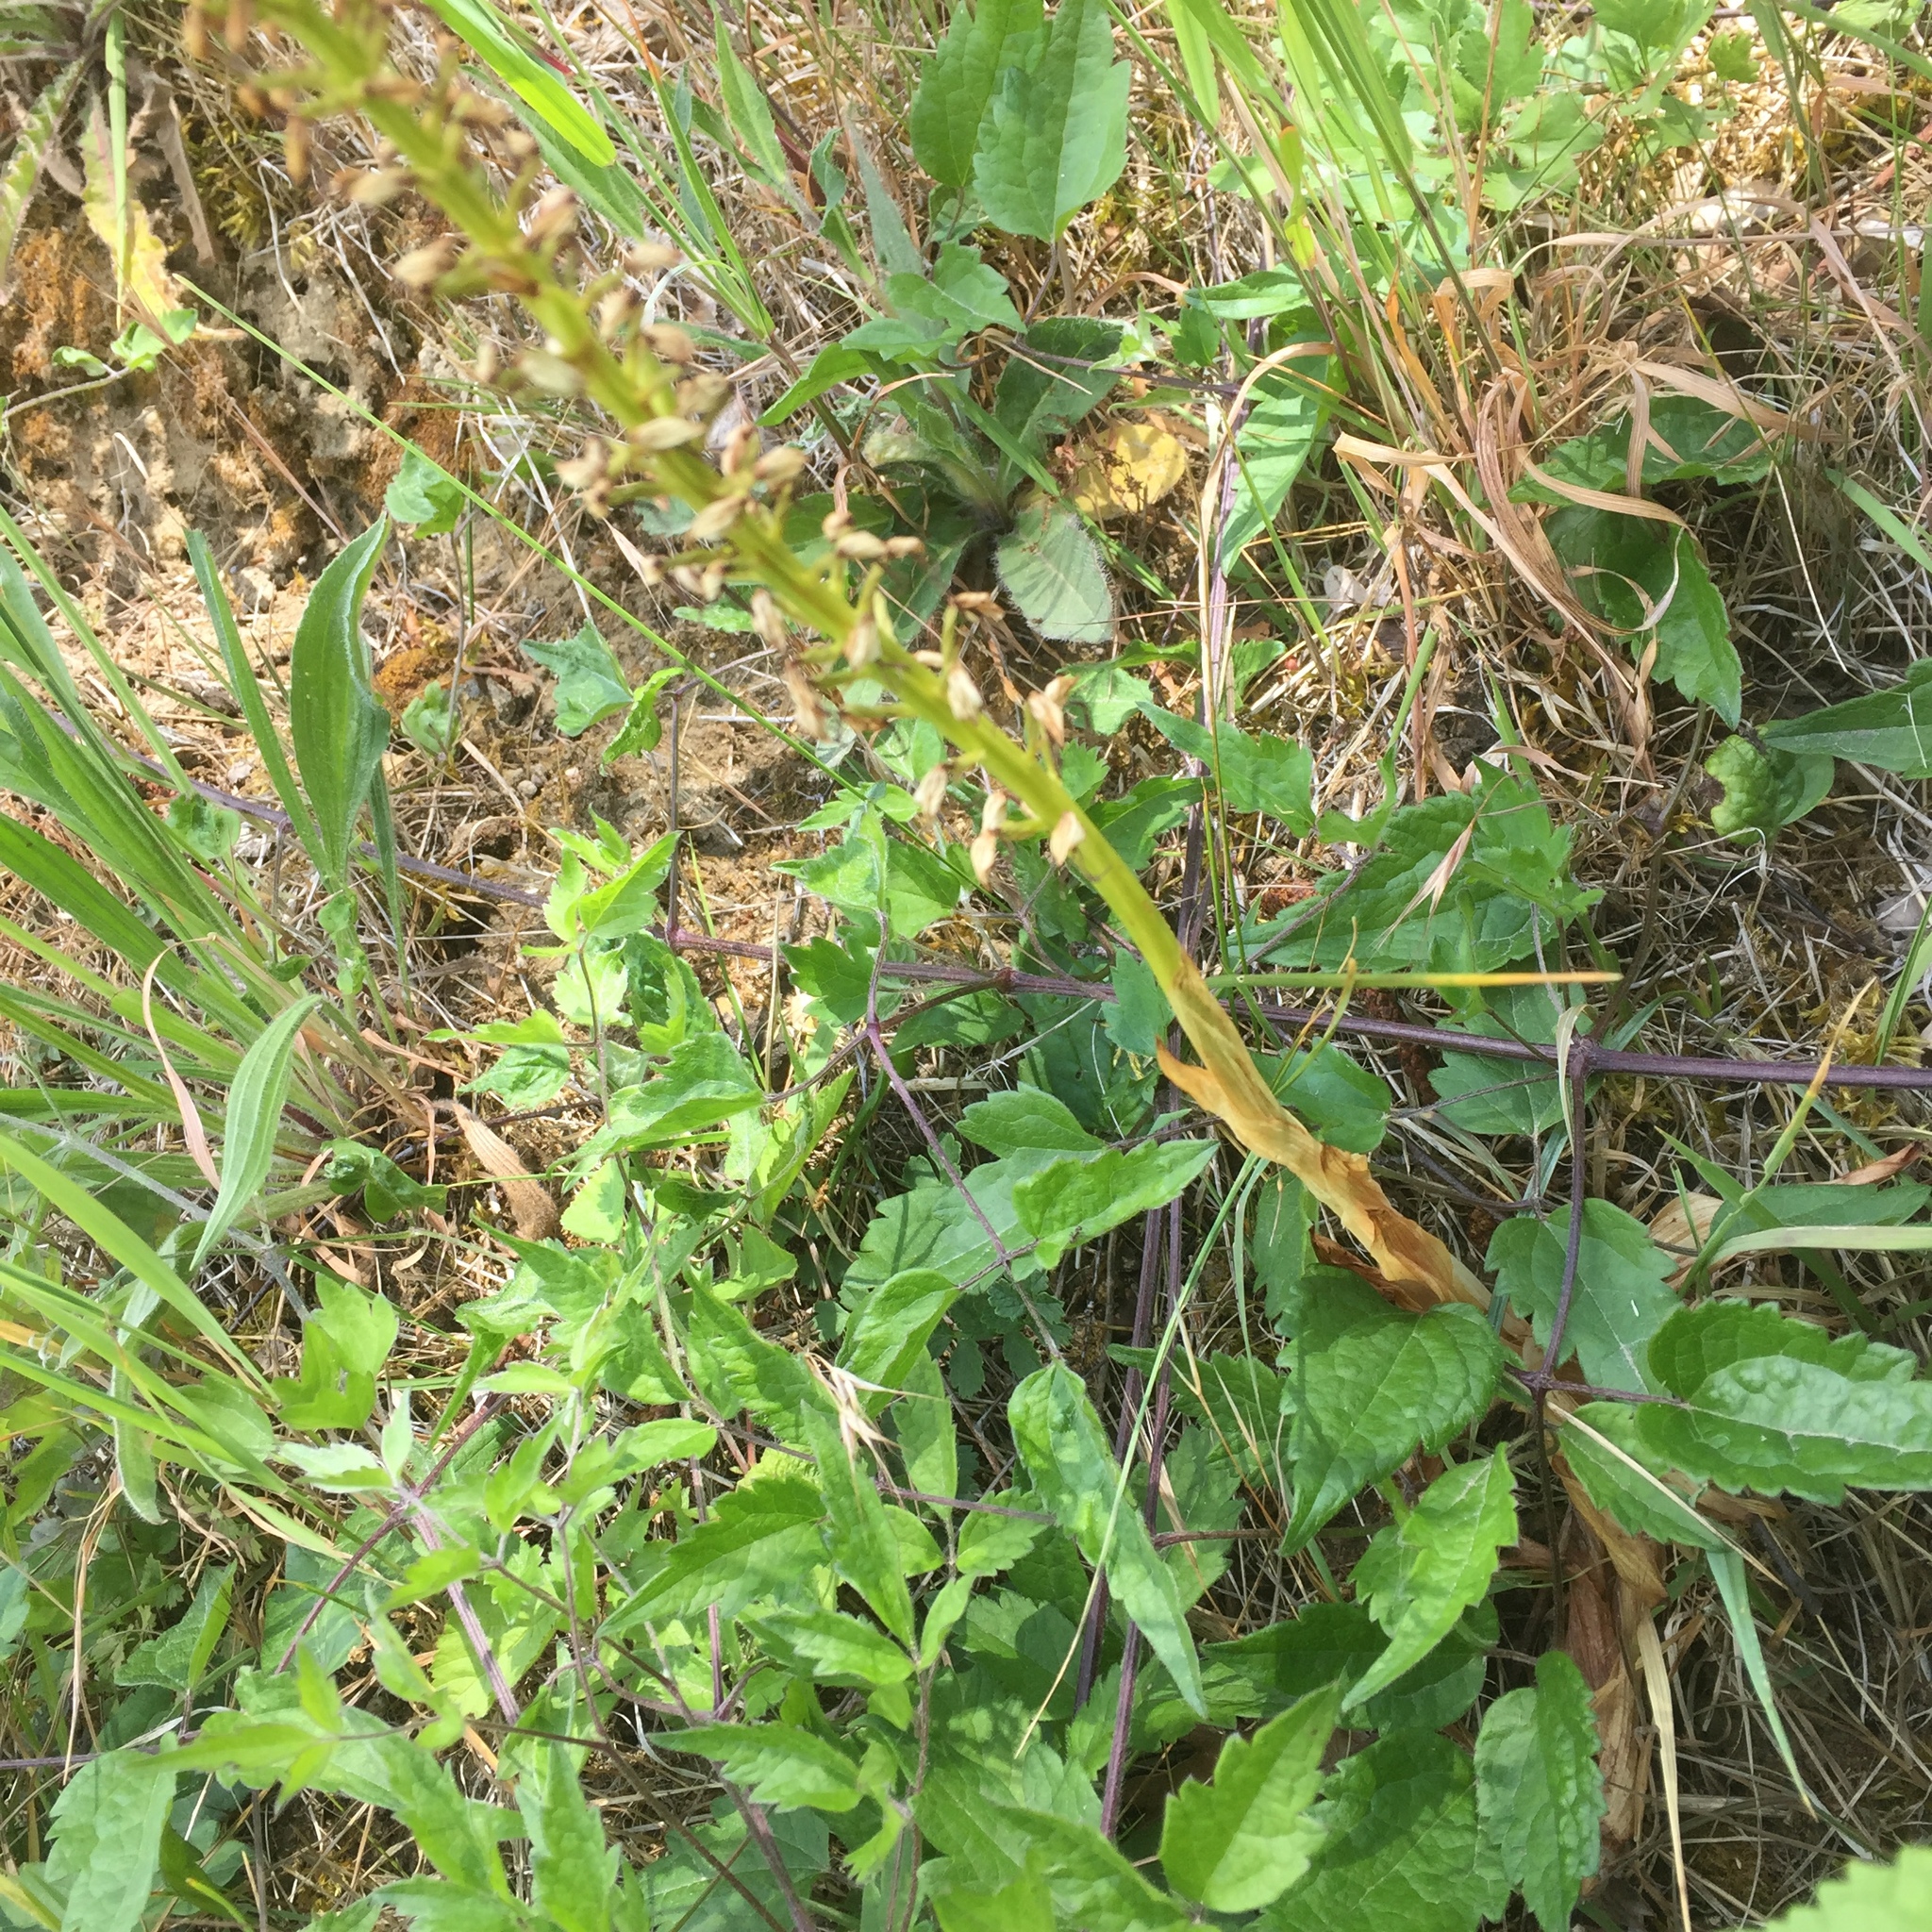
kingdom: Plantae
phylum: Tracheophyta
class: Liliopsida
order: Asparagales
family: Orchidaceae
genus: Orchis
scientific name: Orchis anthropophora
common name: Man orchid
